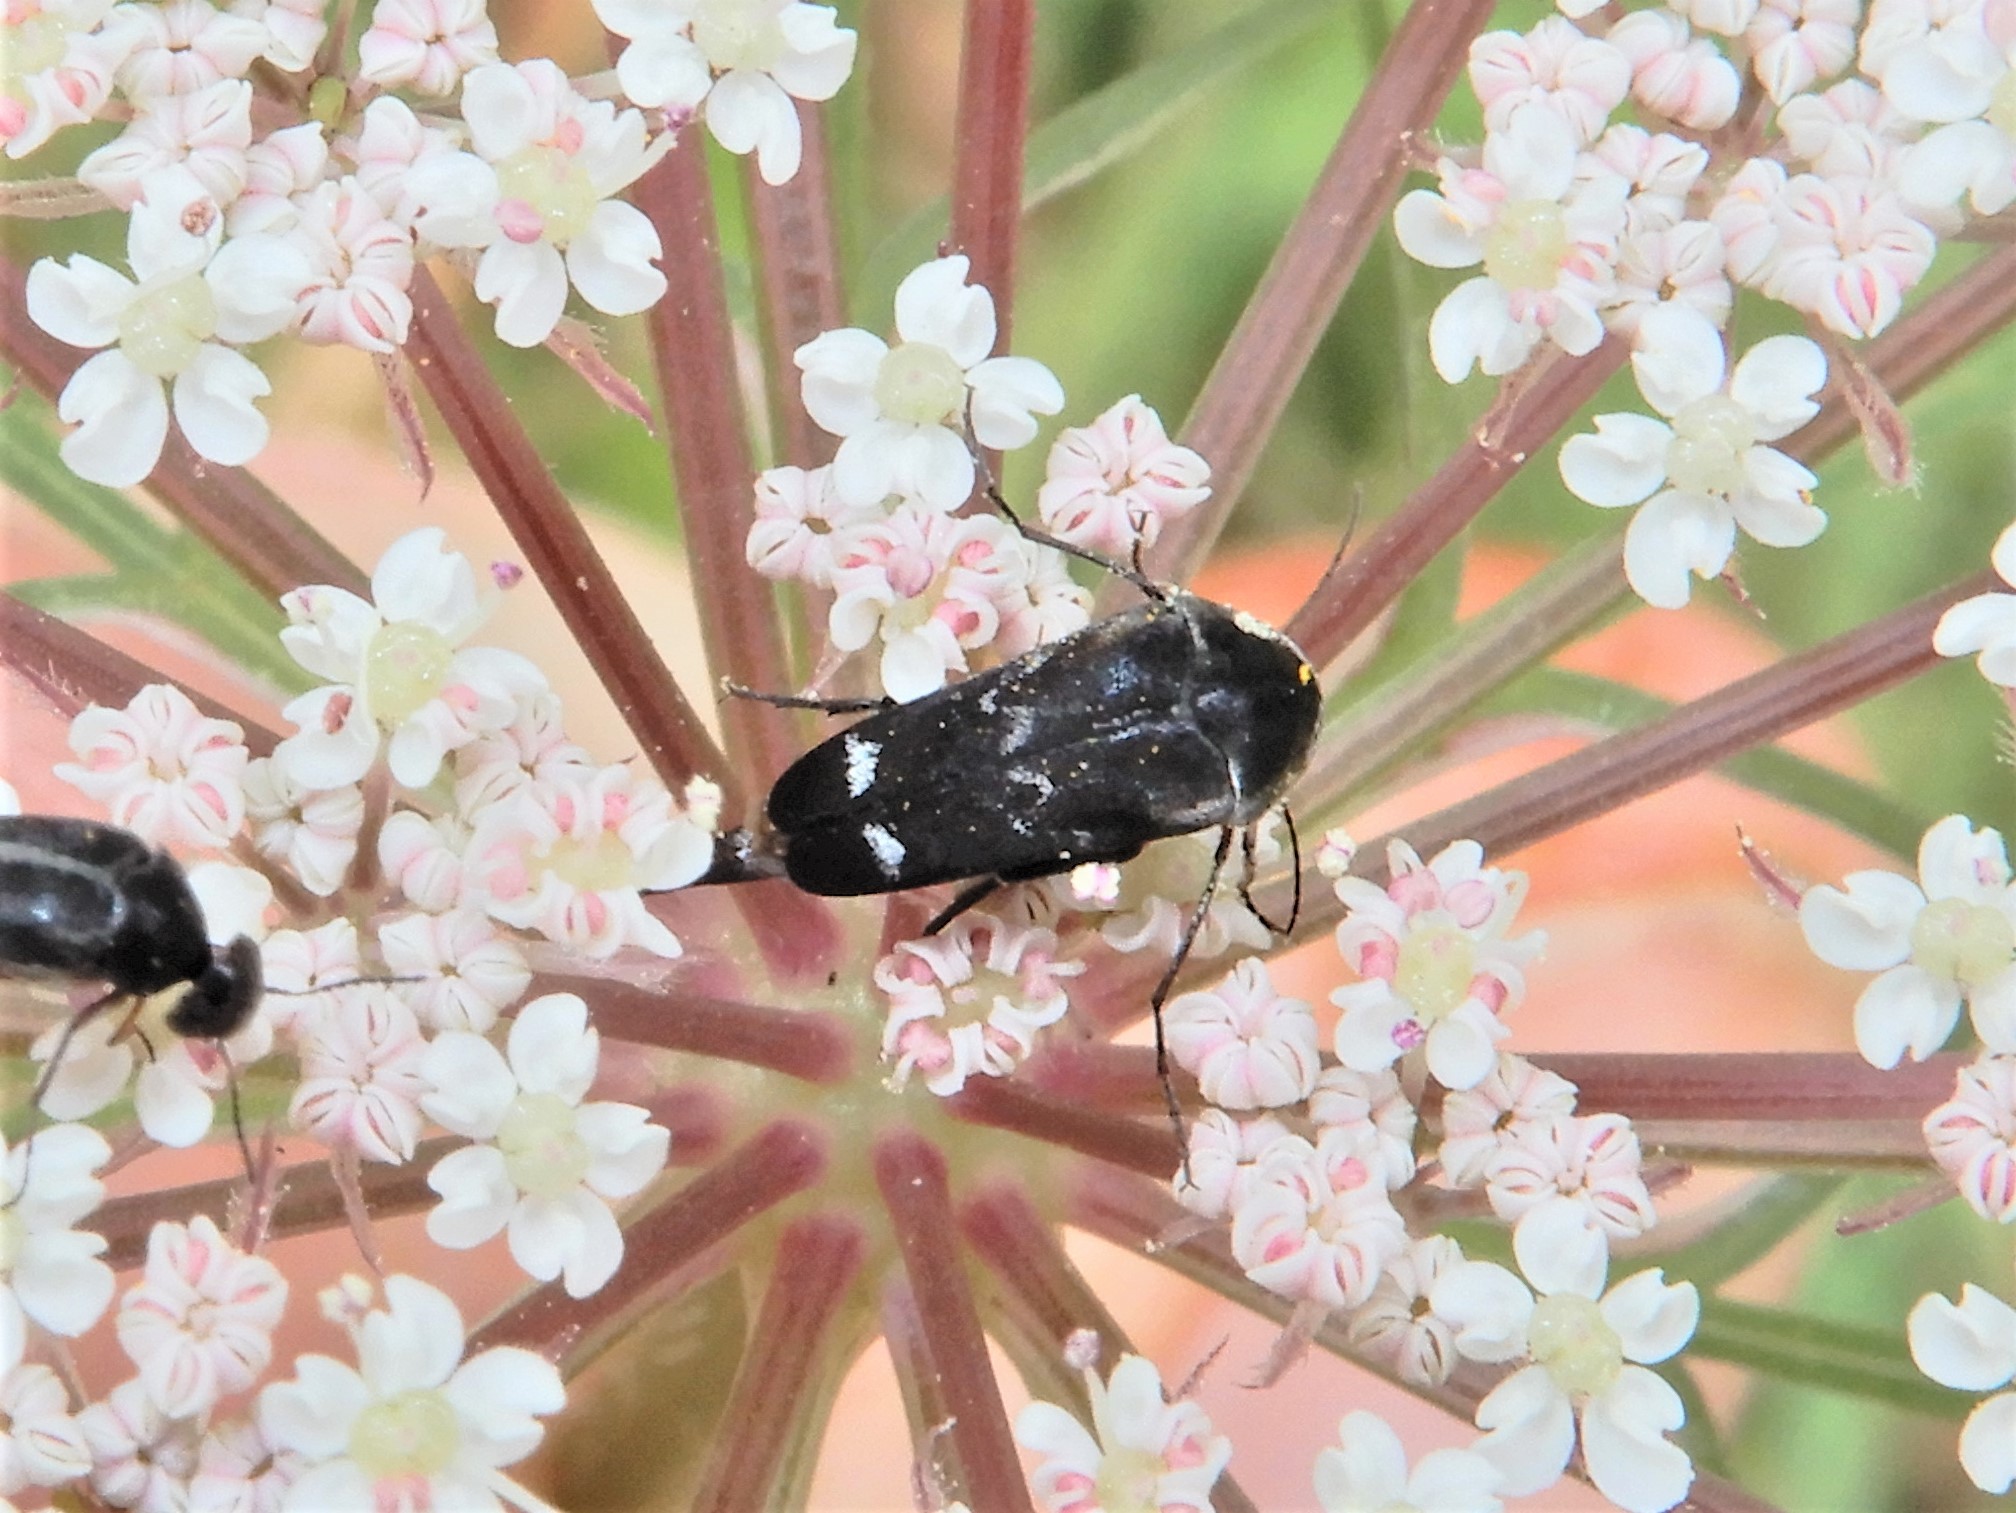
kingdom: Animalia
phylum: Arthropoda
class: Insecta
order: Coleoptera
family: Mordellidae
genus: Mordella
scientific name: Mordella
